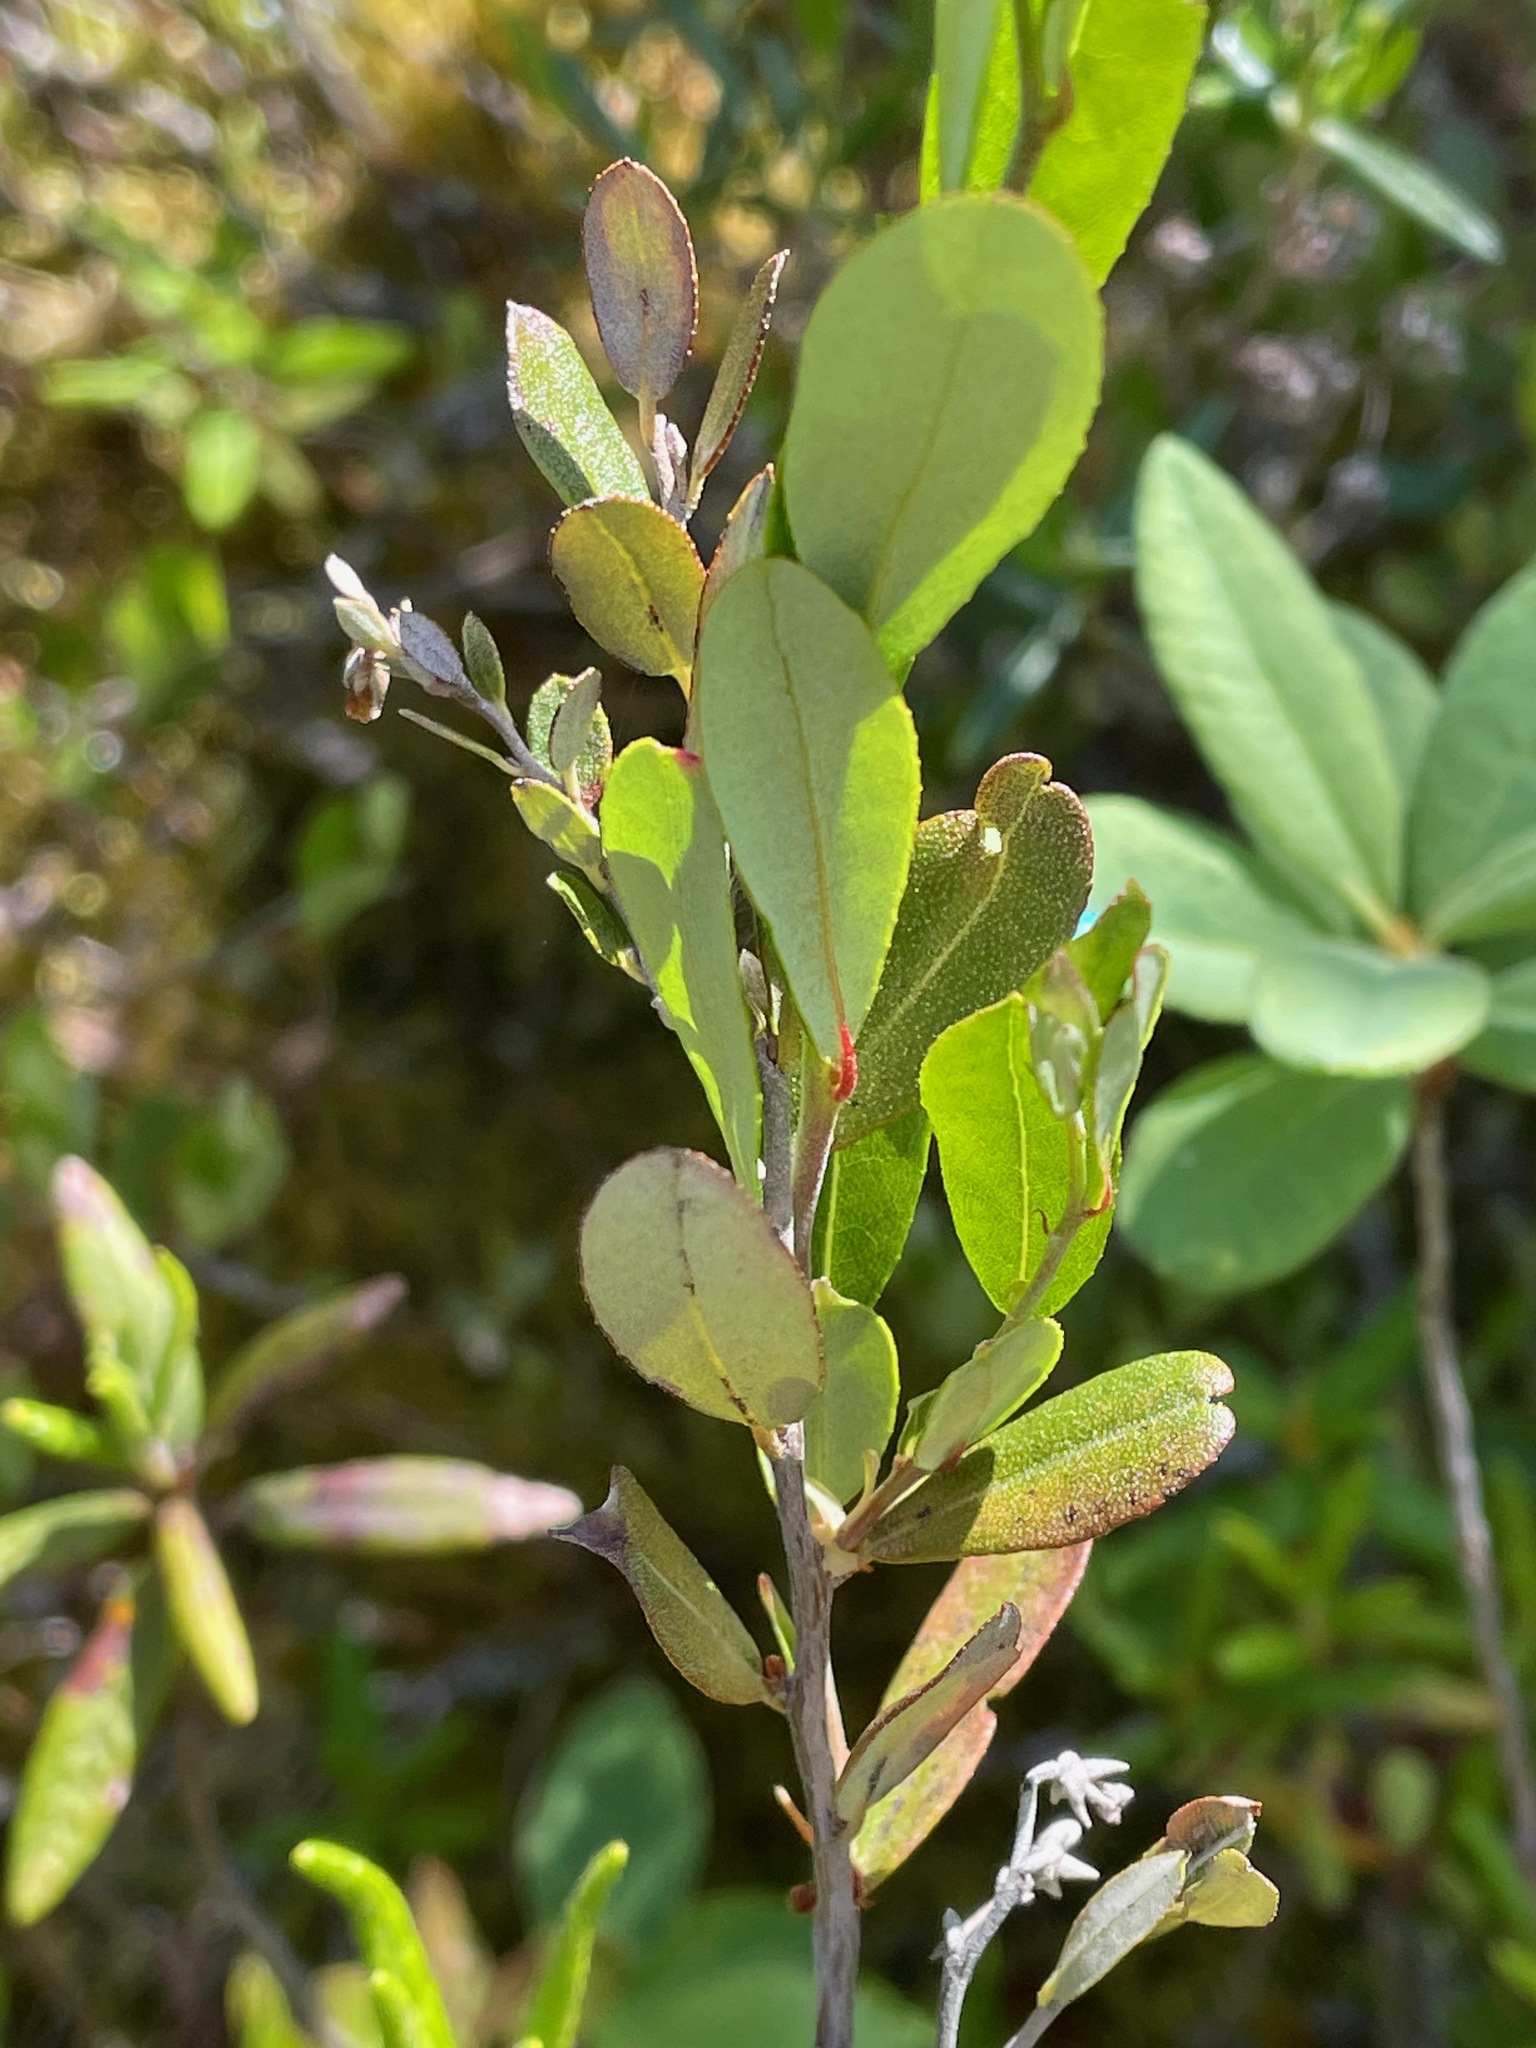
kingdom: Plantae
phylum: Tracheophyta
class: Magnoliopsida
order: Ericales
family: Ericaceae
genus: Chamaedaphne
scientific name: Chamaedaphne calyculata
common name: Leatherleaf
